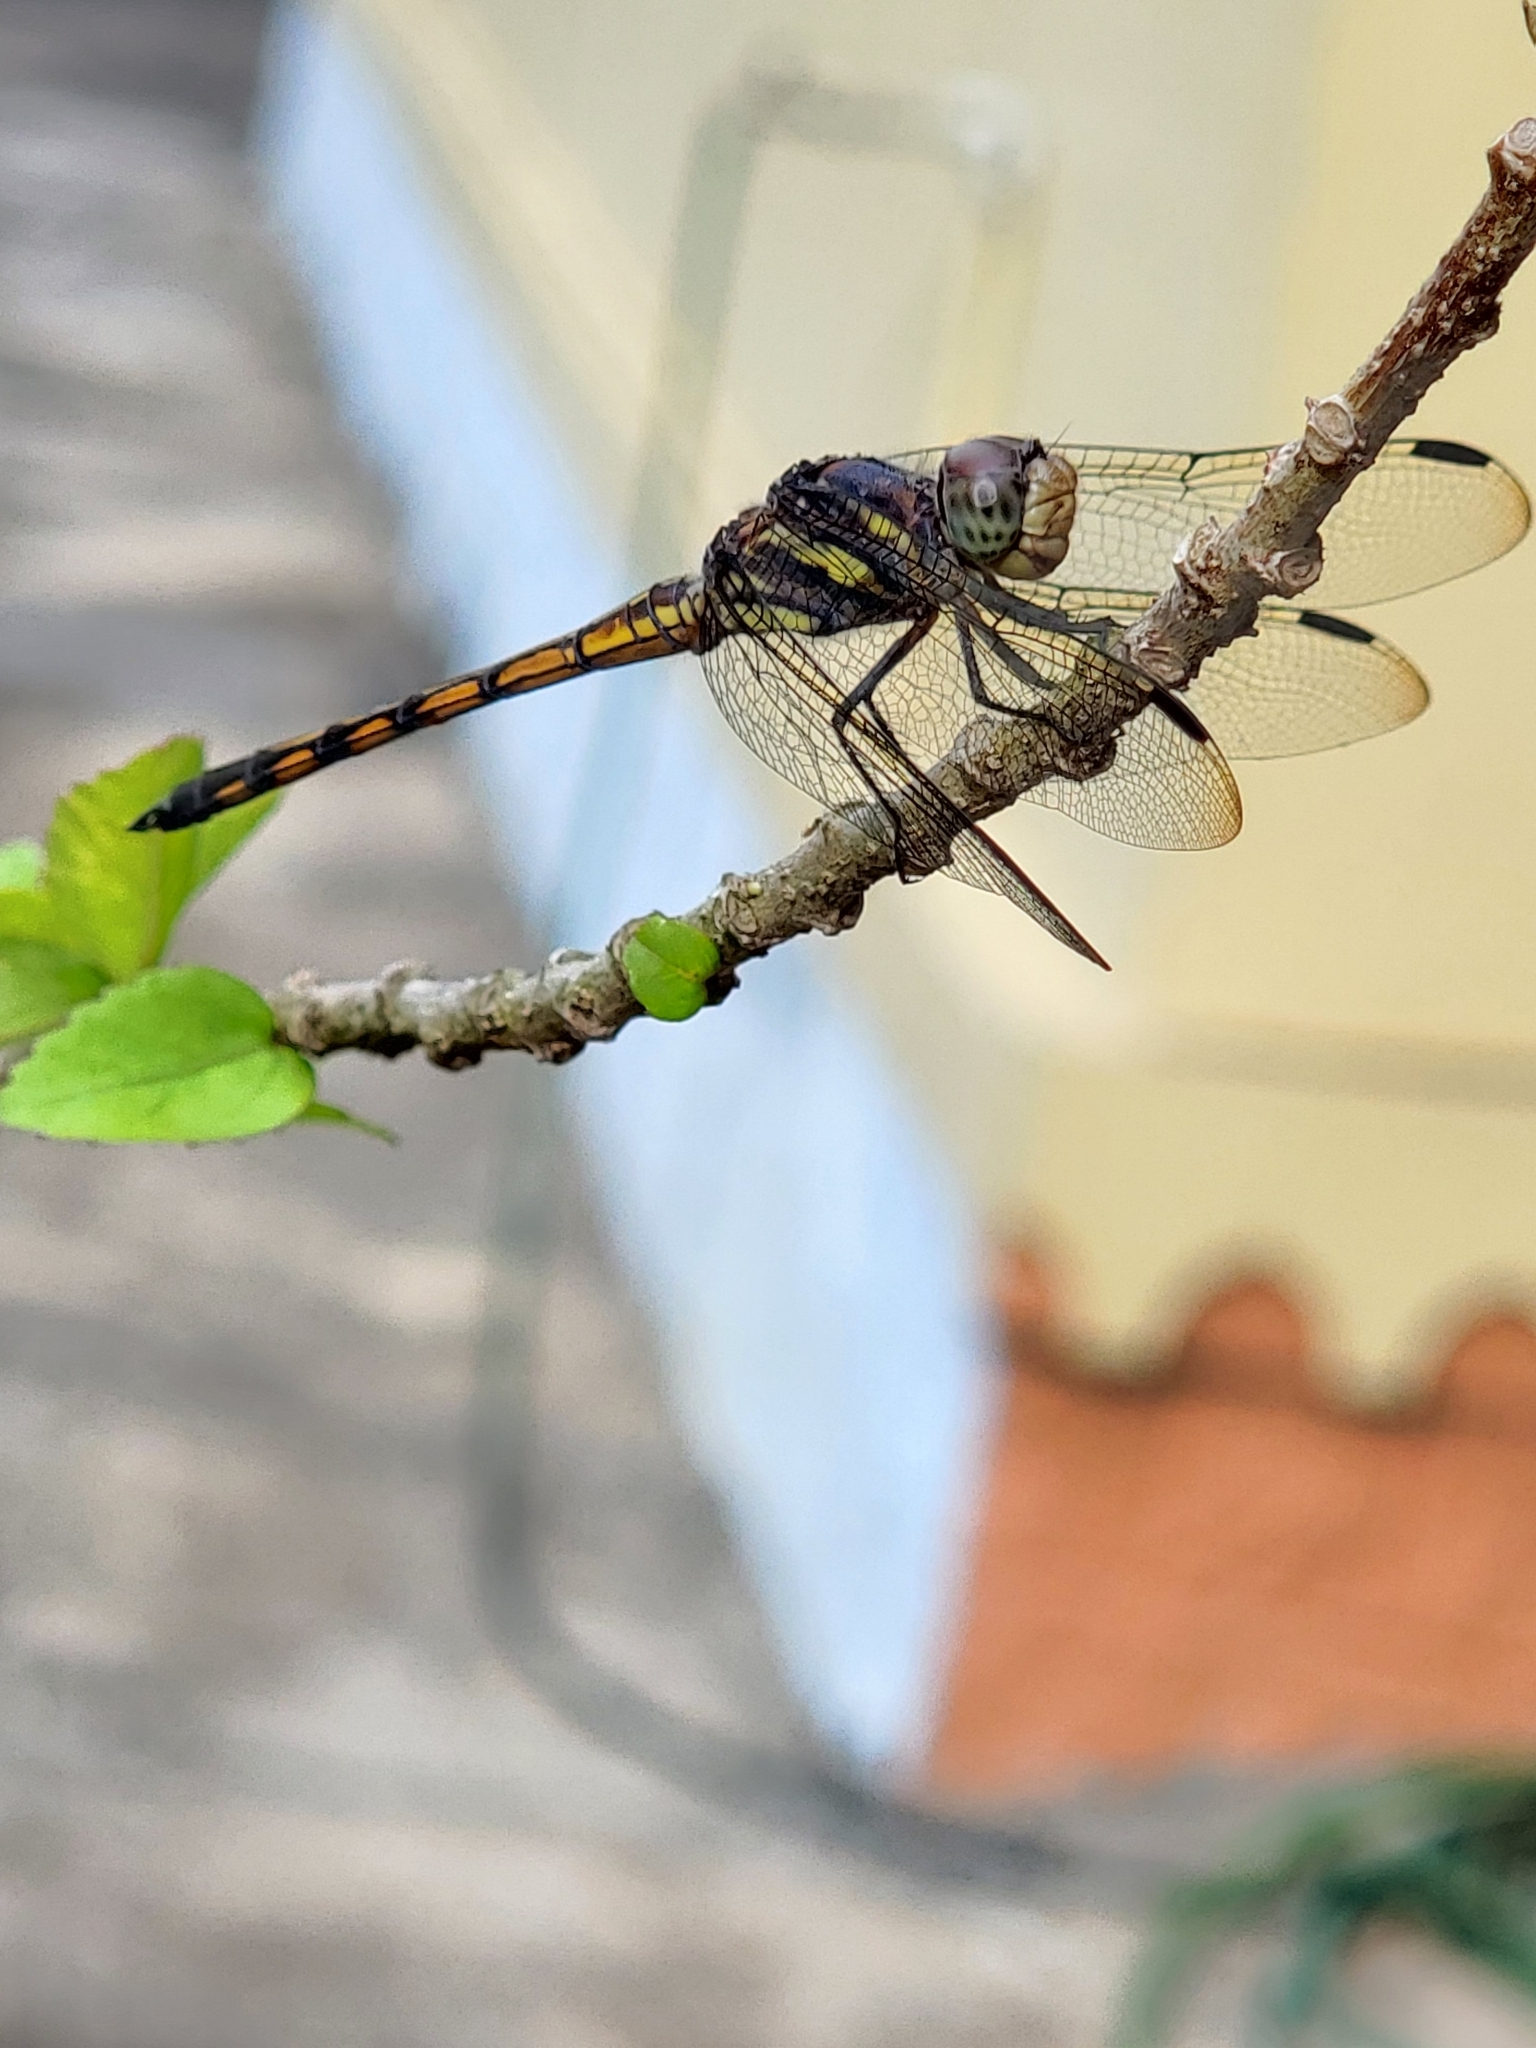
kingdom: Animalia
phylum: Arthropoda
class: Insecta
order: Odonata
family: Libellulidae
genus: Potamarcha
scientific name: Potamarcha congener
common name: Blue chaser
